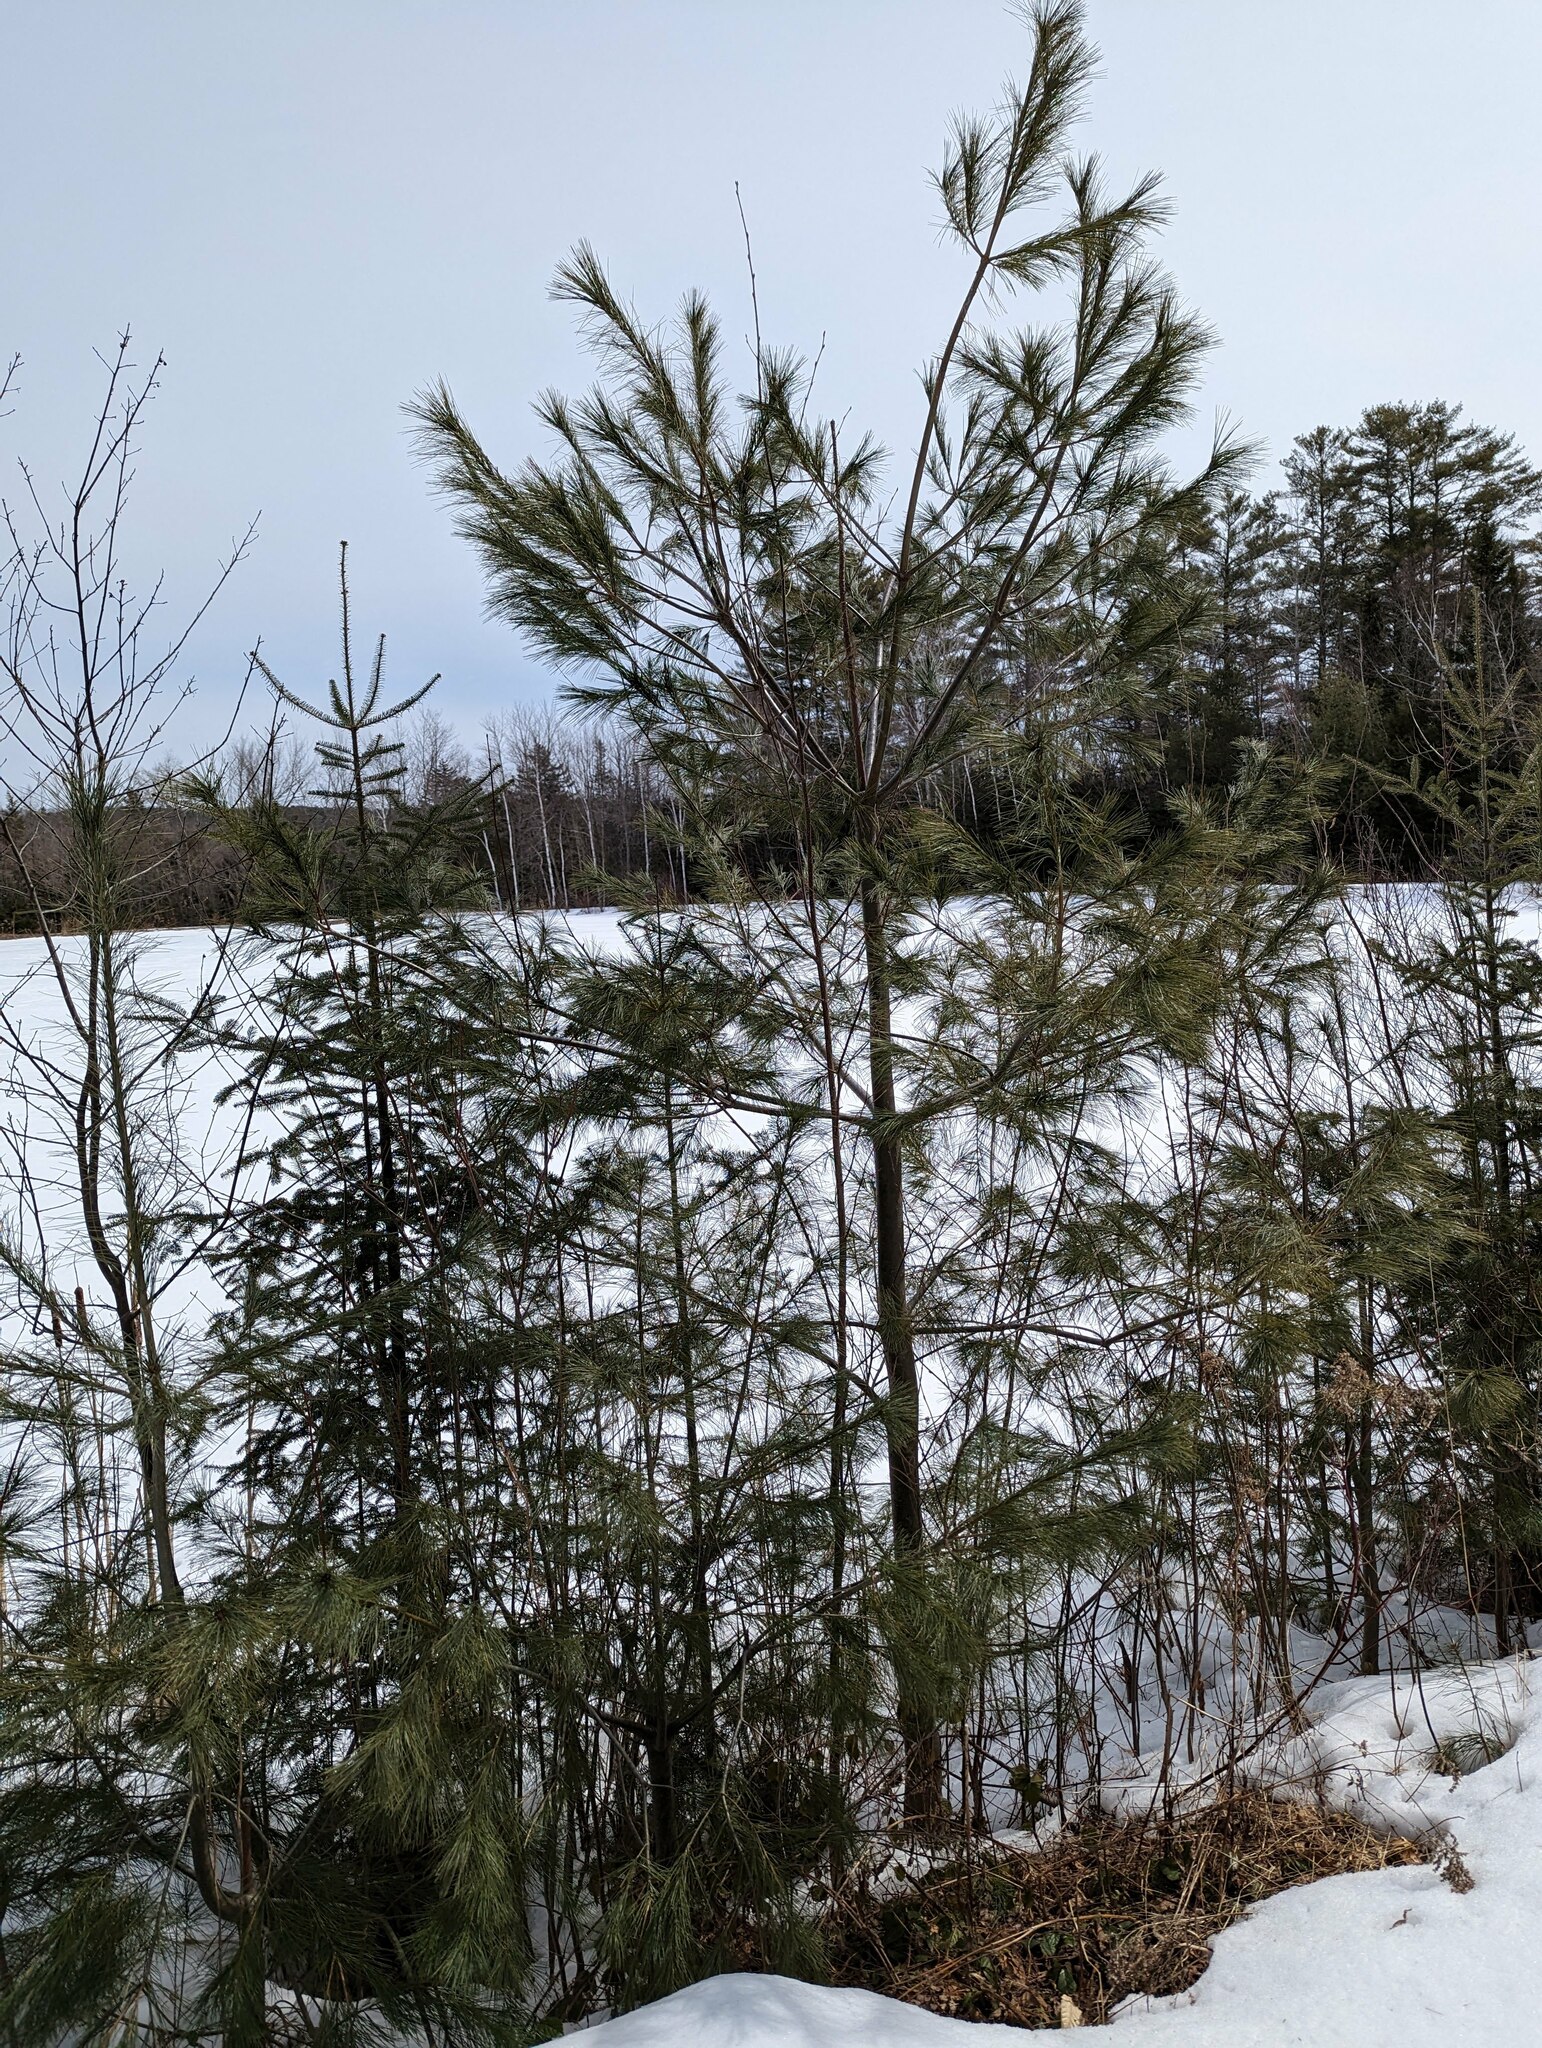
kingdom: Plantae
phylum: Tracheophyta
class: Pinopsida
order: Pinales
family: Pinaceae
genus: Pinus
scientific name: Pinus strobus
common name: Weymouth pine
